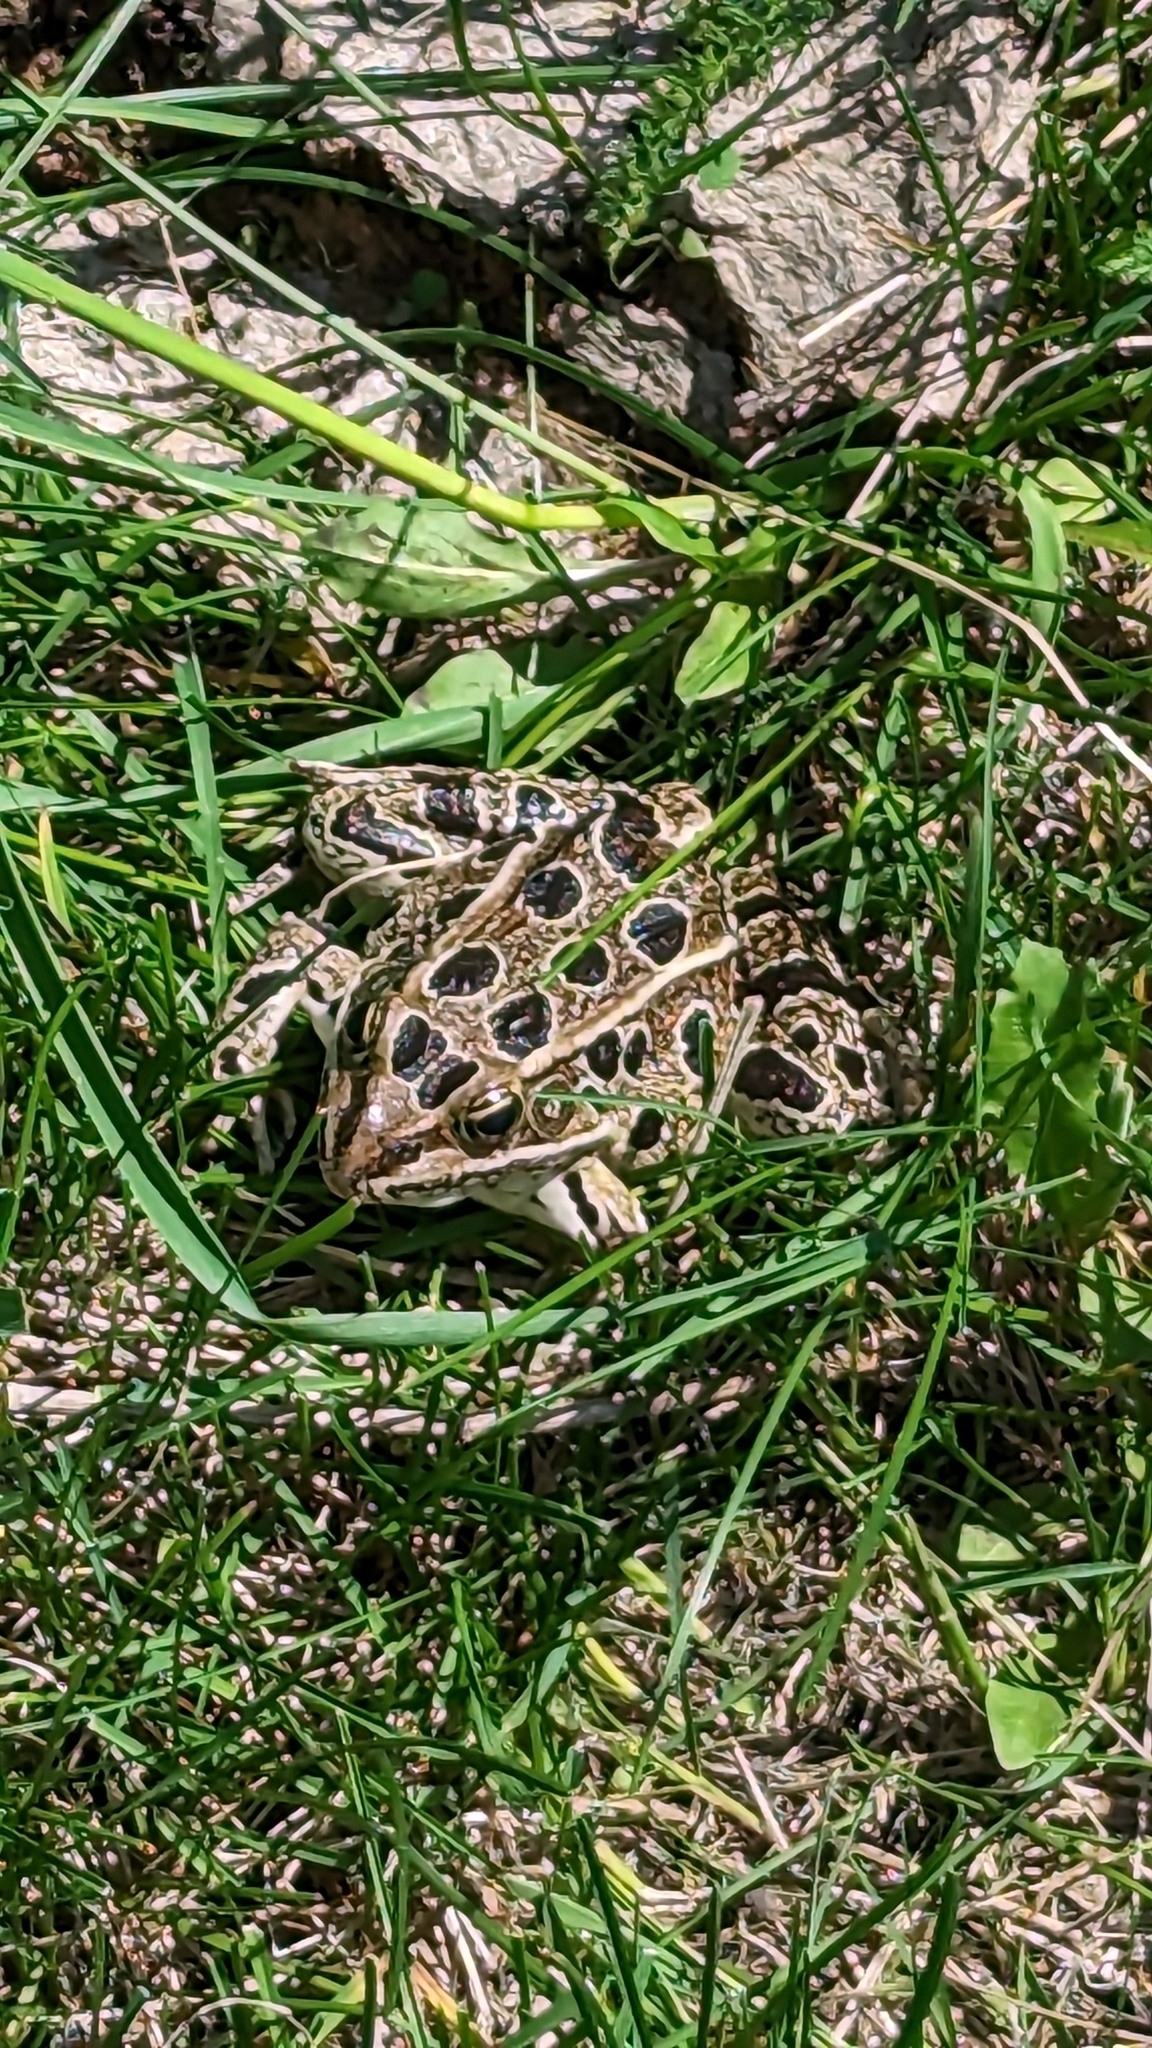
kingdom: Animalia
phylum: Chordata
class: Amphibia
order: Anura
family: Ranidae
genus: Lithobates
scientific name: Lithobates pipiens
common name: Northern leopard frog
